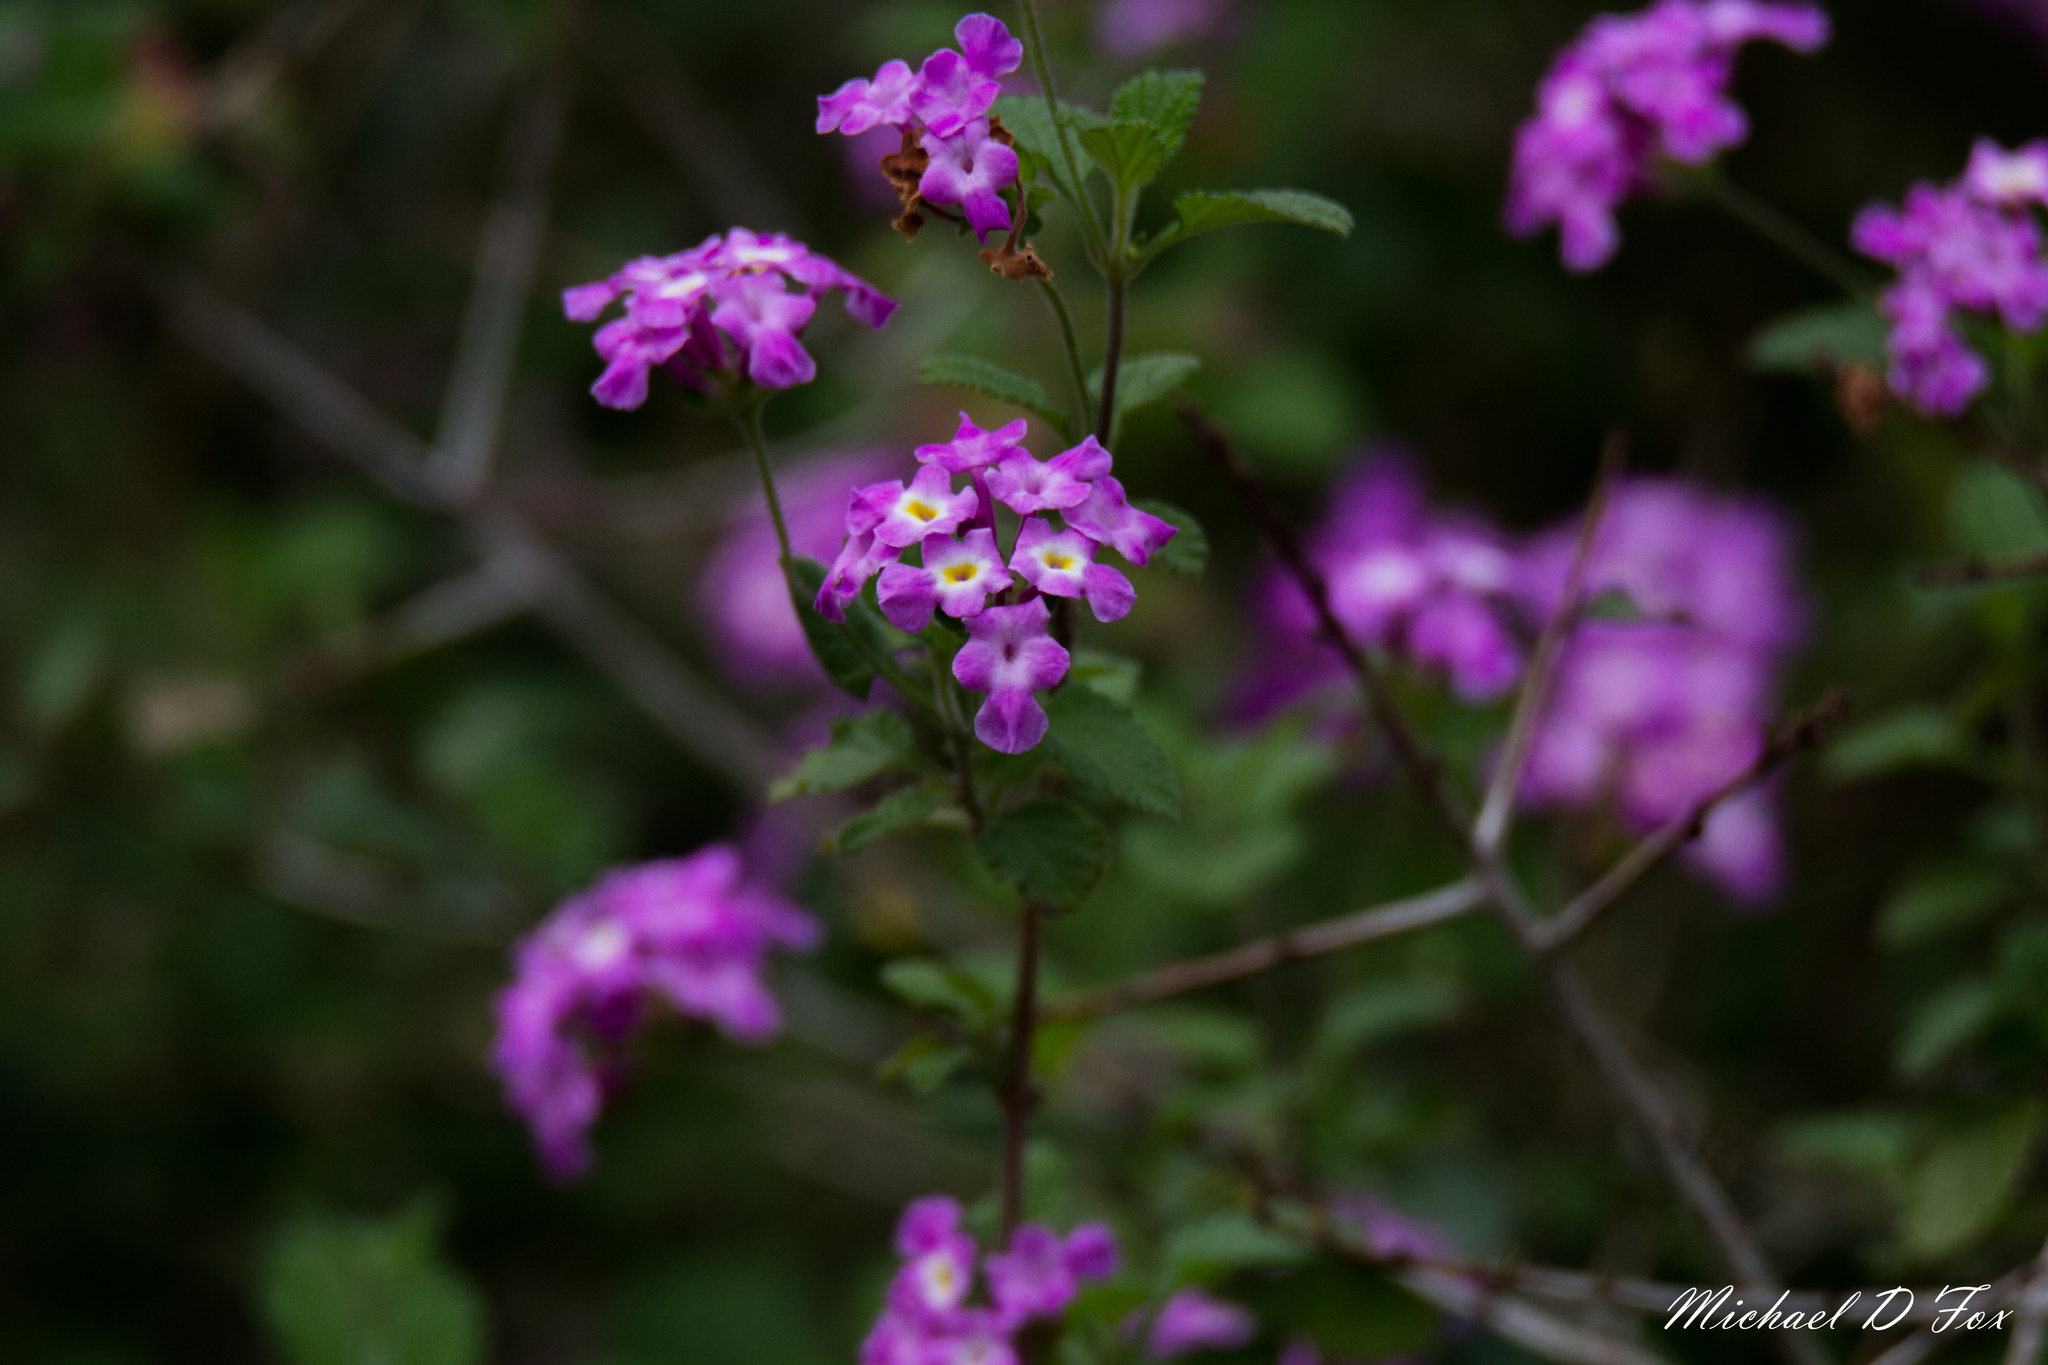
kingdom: Plantae
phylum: Tracheophyta
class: Magnoliopsida
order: Lamiales
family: Verbenaceae
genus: Lantana
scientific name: Lantana montevidensis
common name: Trailing shrubverbena
